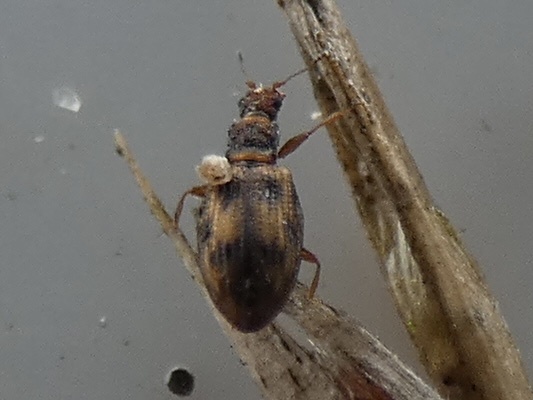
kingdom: Animalia
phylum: Arthropoda
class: Insecta
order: Coleoptera
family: Latridiidae
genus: Cartodere
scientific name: Cartodere bifasciata
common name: Plaster beetle
